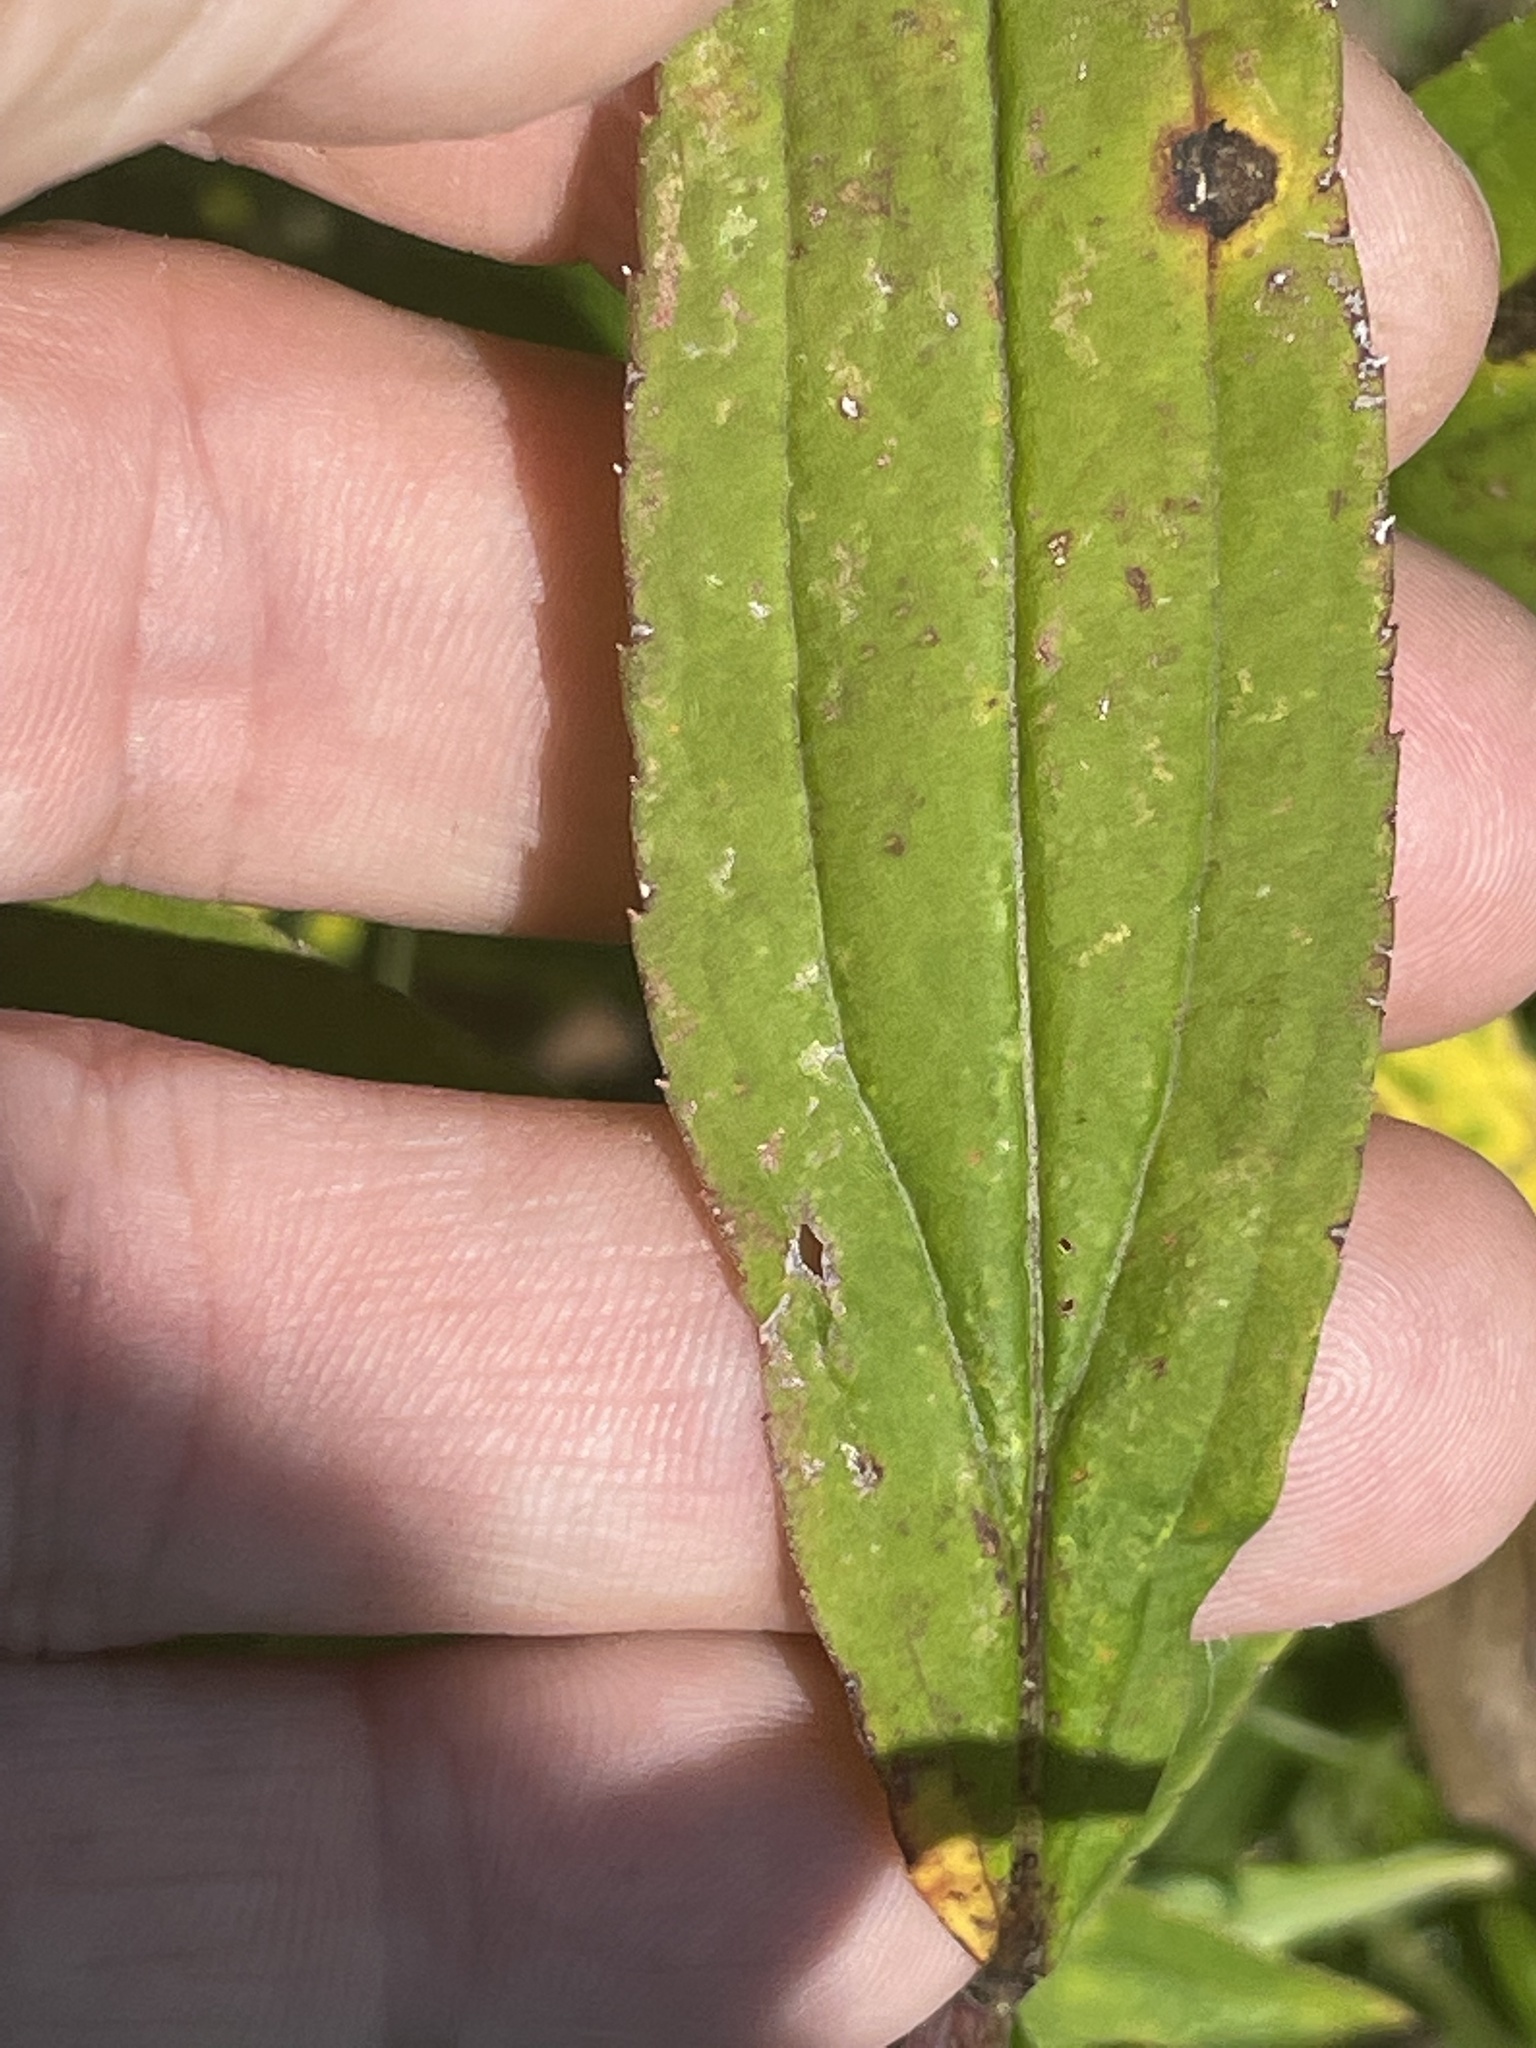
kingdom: Plantae
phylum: Tracheophyta
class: Magnoliopsida
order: Asterales
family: Asteraceae
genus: Solidago
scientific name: Solidago gigantea
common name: Giant goldenrod
